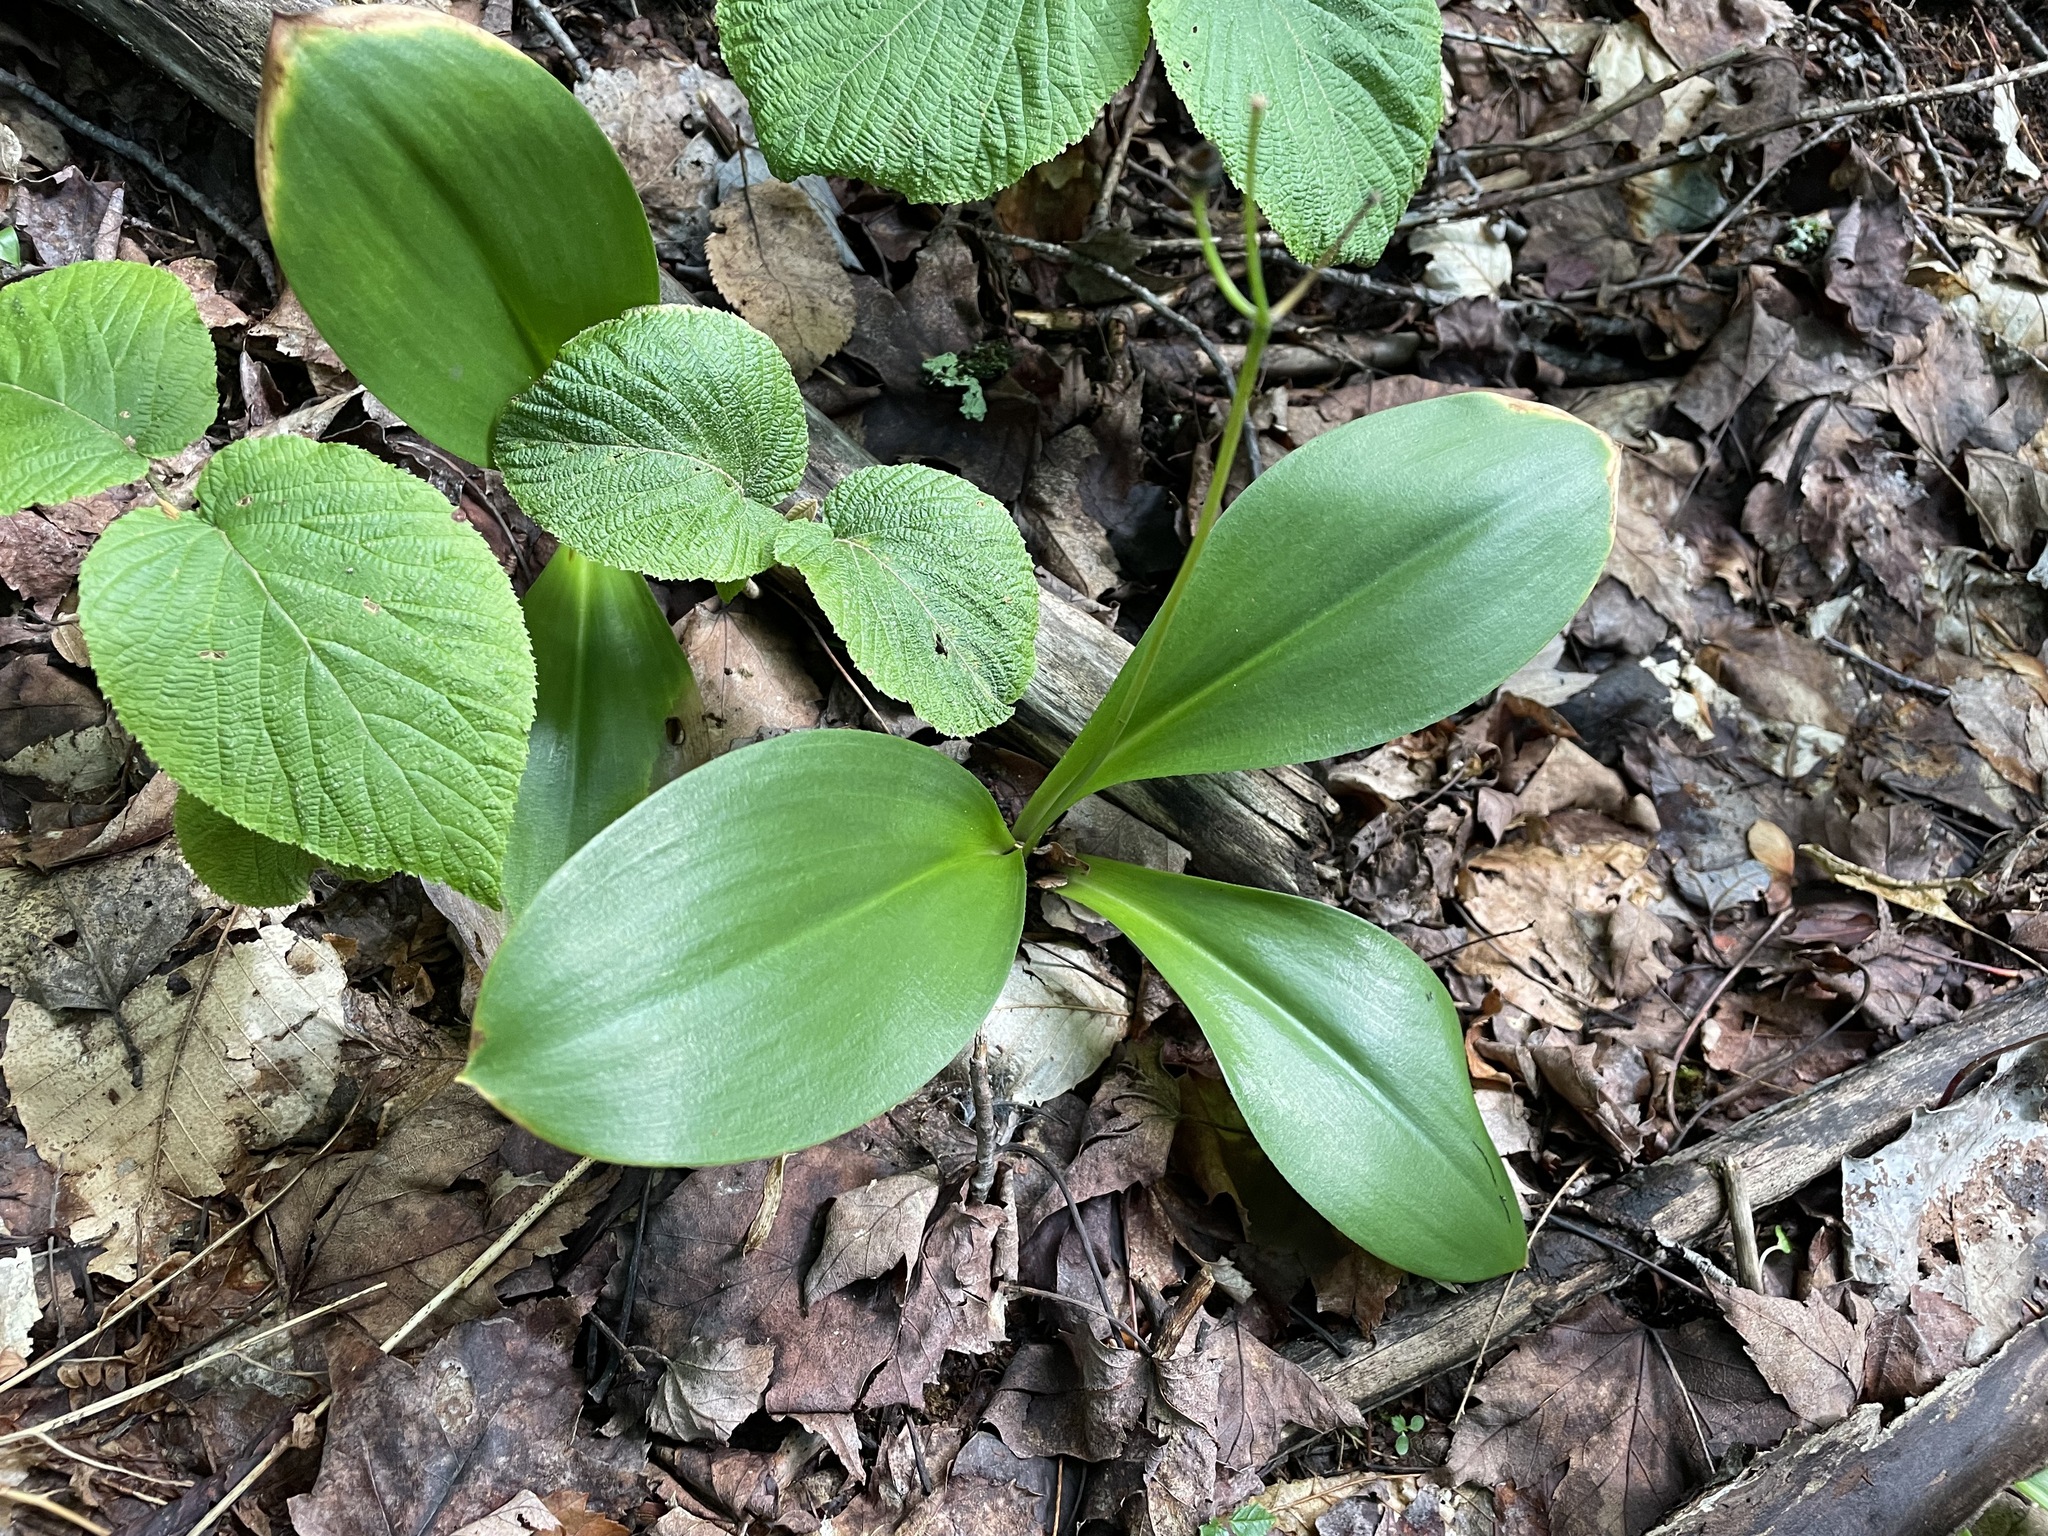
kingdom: Plantae
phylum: Tracheophyta
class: Liliopsida
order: Liliales
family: Liliaceae
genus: Clintonia
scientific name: Clintonia borealis
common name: Yellow clintonia
